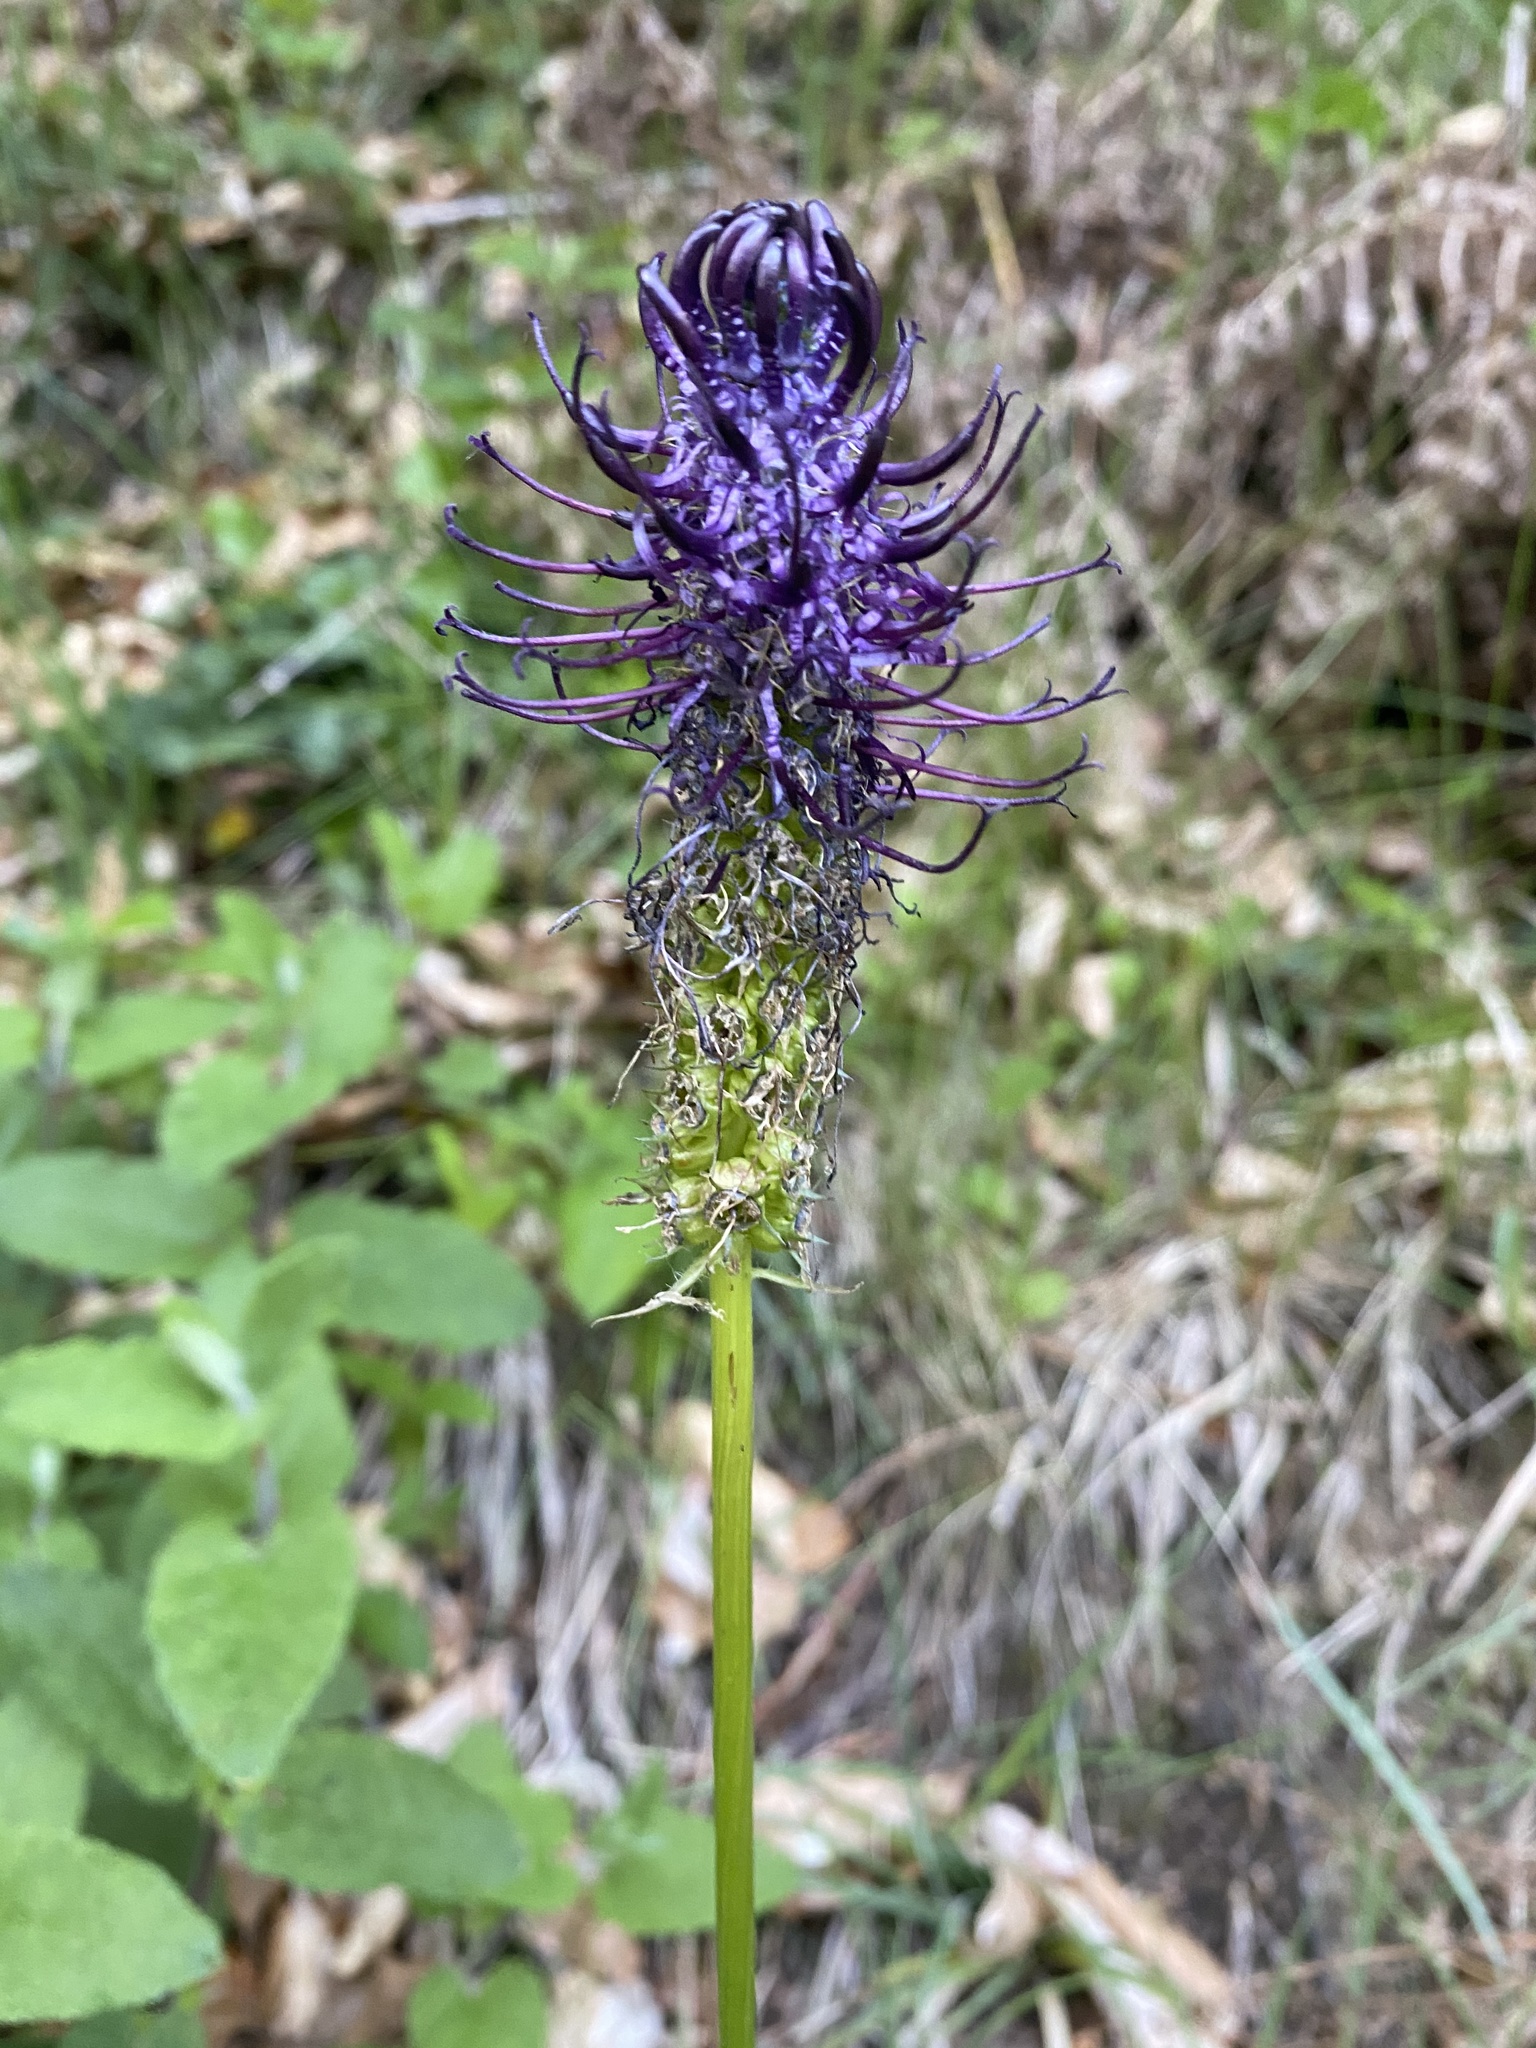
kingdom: Plantae
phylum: Tracheophyta
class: Magnoliopsida
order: Asterales
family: Campanulaceae
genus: Phyteuma
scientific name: Phyteuma nigrum
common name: Black rampion
